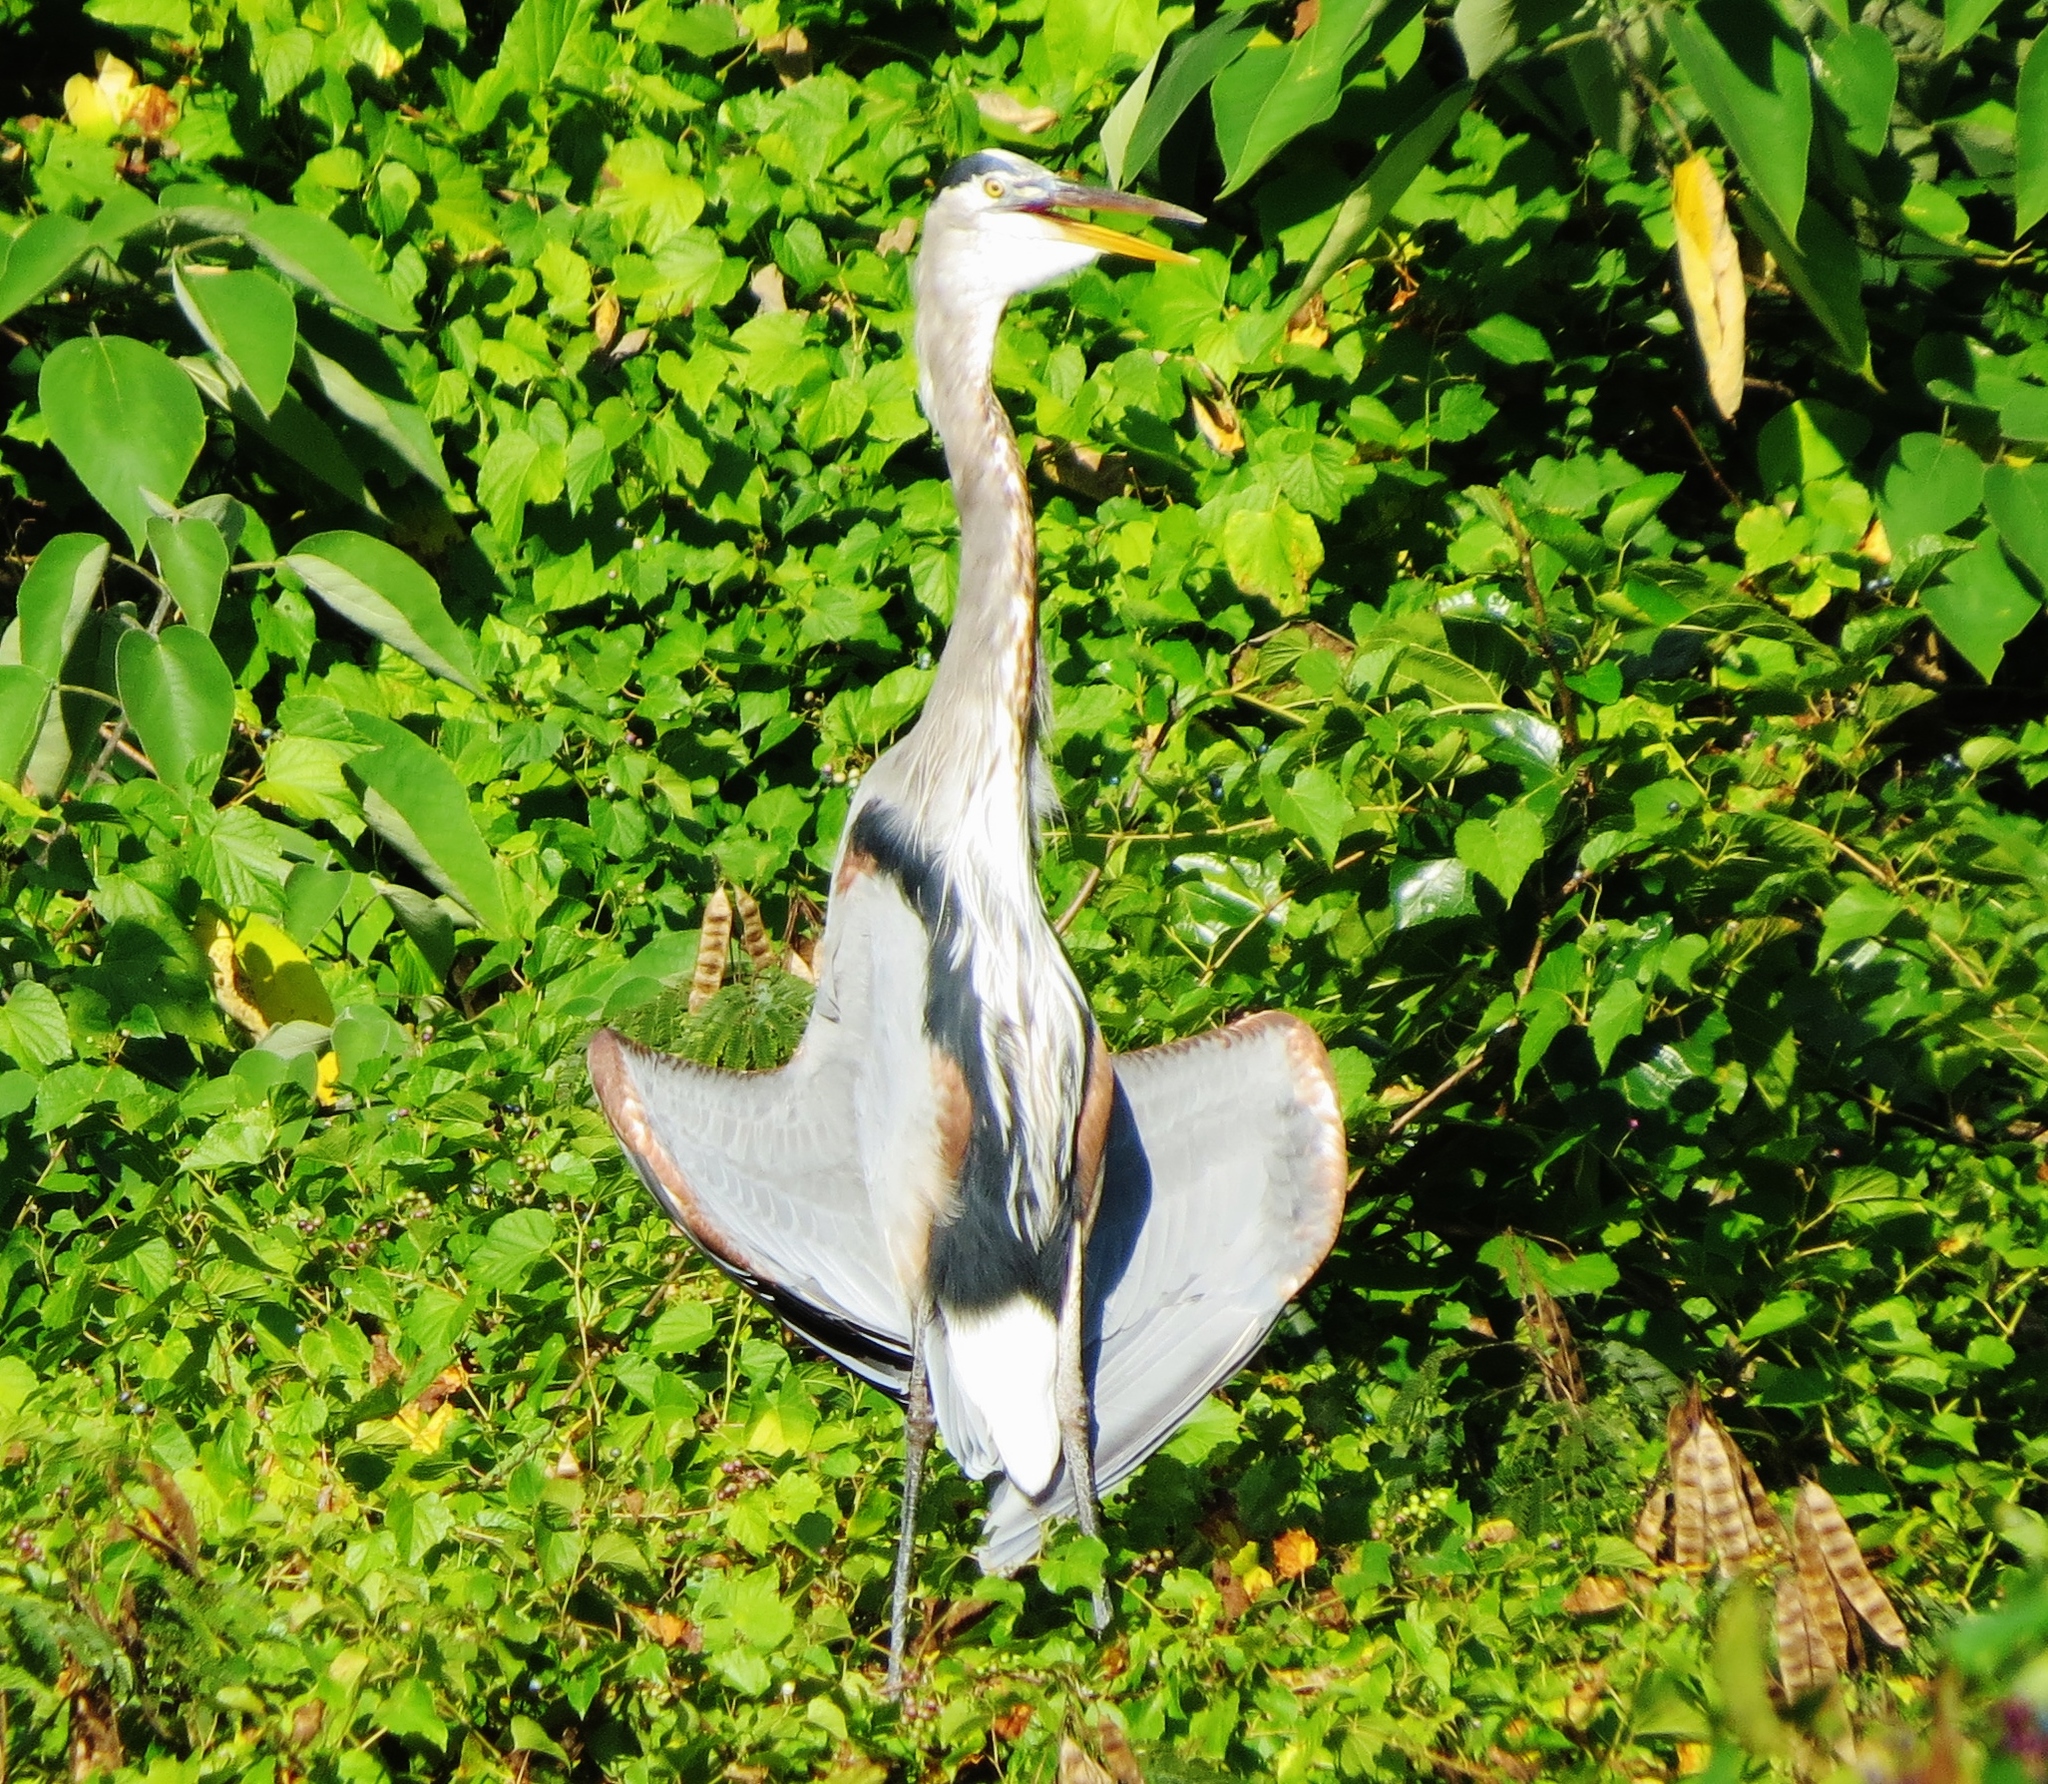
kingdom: Animalia
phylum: Chordata
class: Aves
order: Pelecaniformes
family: Ardeidae
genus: Ardea
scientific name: Ardea herodias
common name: Great blue heron
